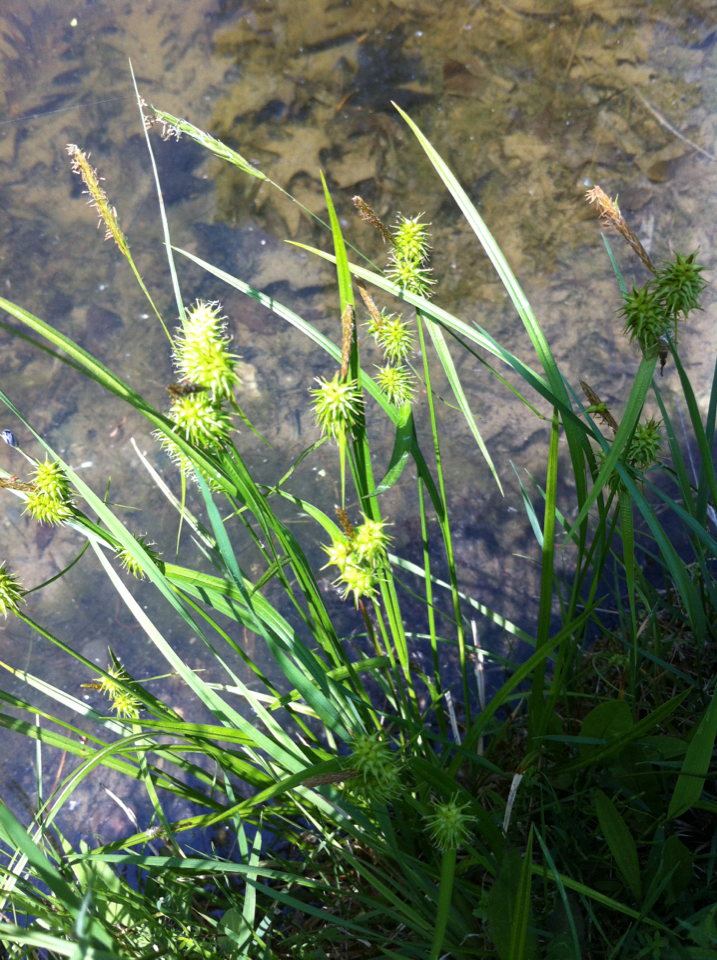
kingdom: Plantae
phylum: Tracheophyta
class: Liliopsida
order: Poales
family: Cyperaceae
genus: Carex
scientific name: Carex flava
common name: Large yellow-sedge
